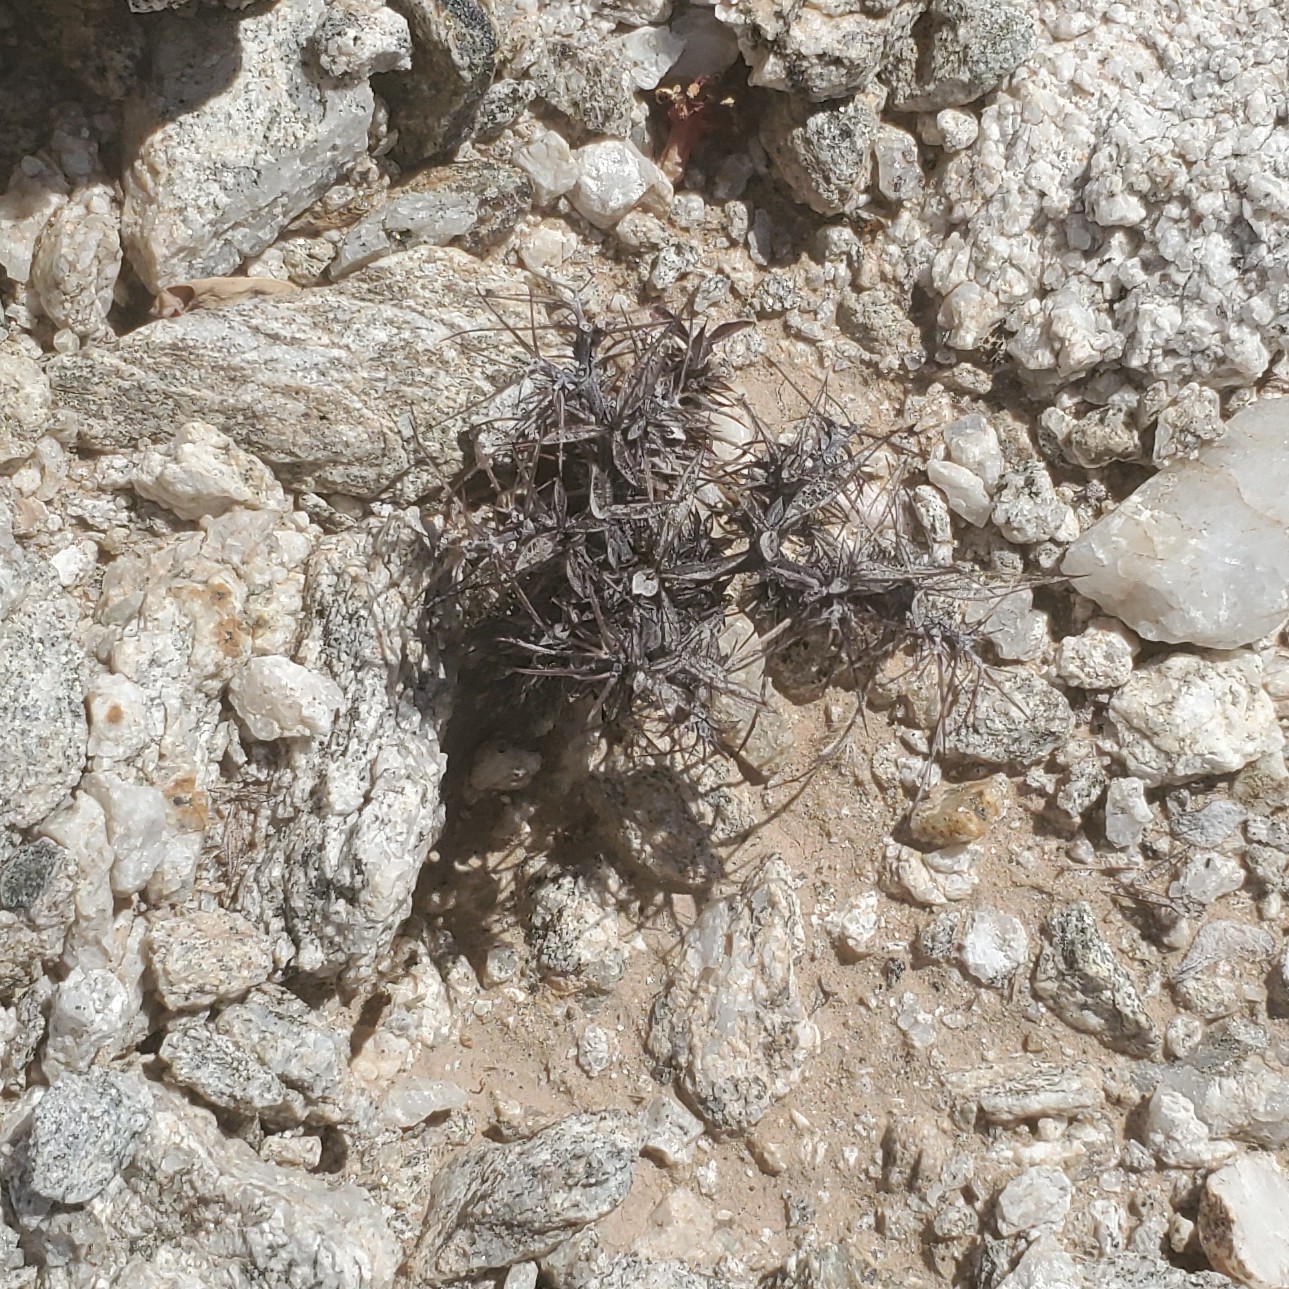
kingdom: Plantae
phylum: Tracheophyta
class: Magnoliopsida
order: Caryophyllales
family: Polygonaceae
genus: Chorizanthe
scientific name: Chorizanthe rigida
